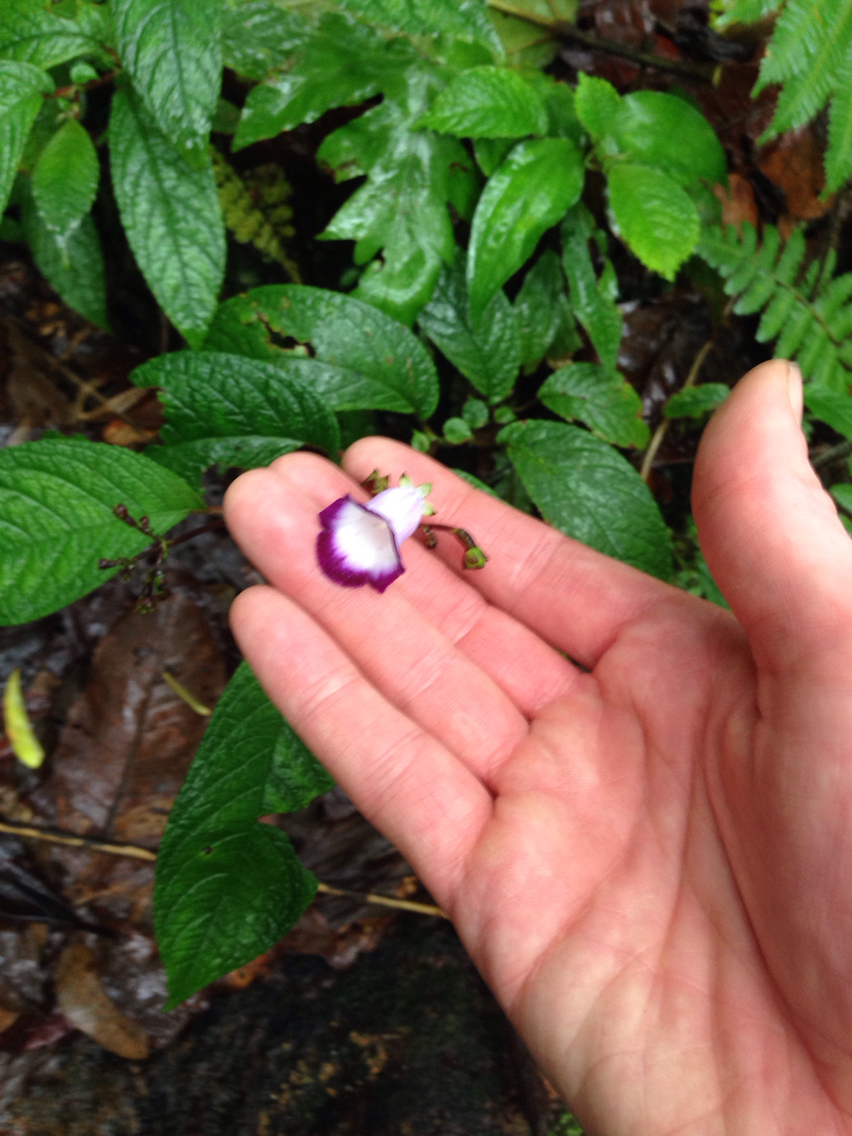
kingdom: Plantae
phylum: Tracheophyta
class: Magnoliopsida
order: Lamiales
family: Gesneriaceae
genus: Monopyle
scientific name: Monopyle maxonii
